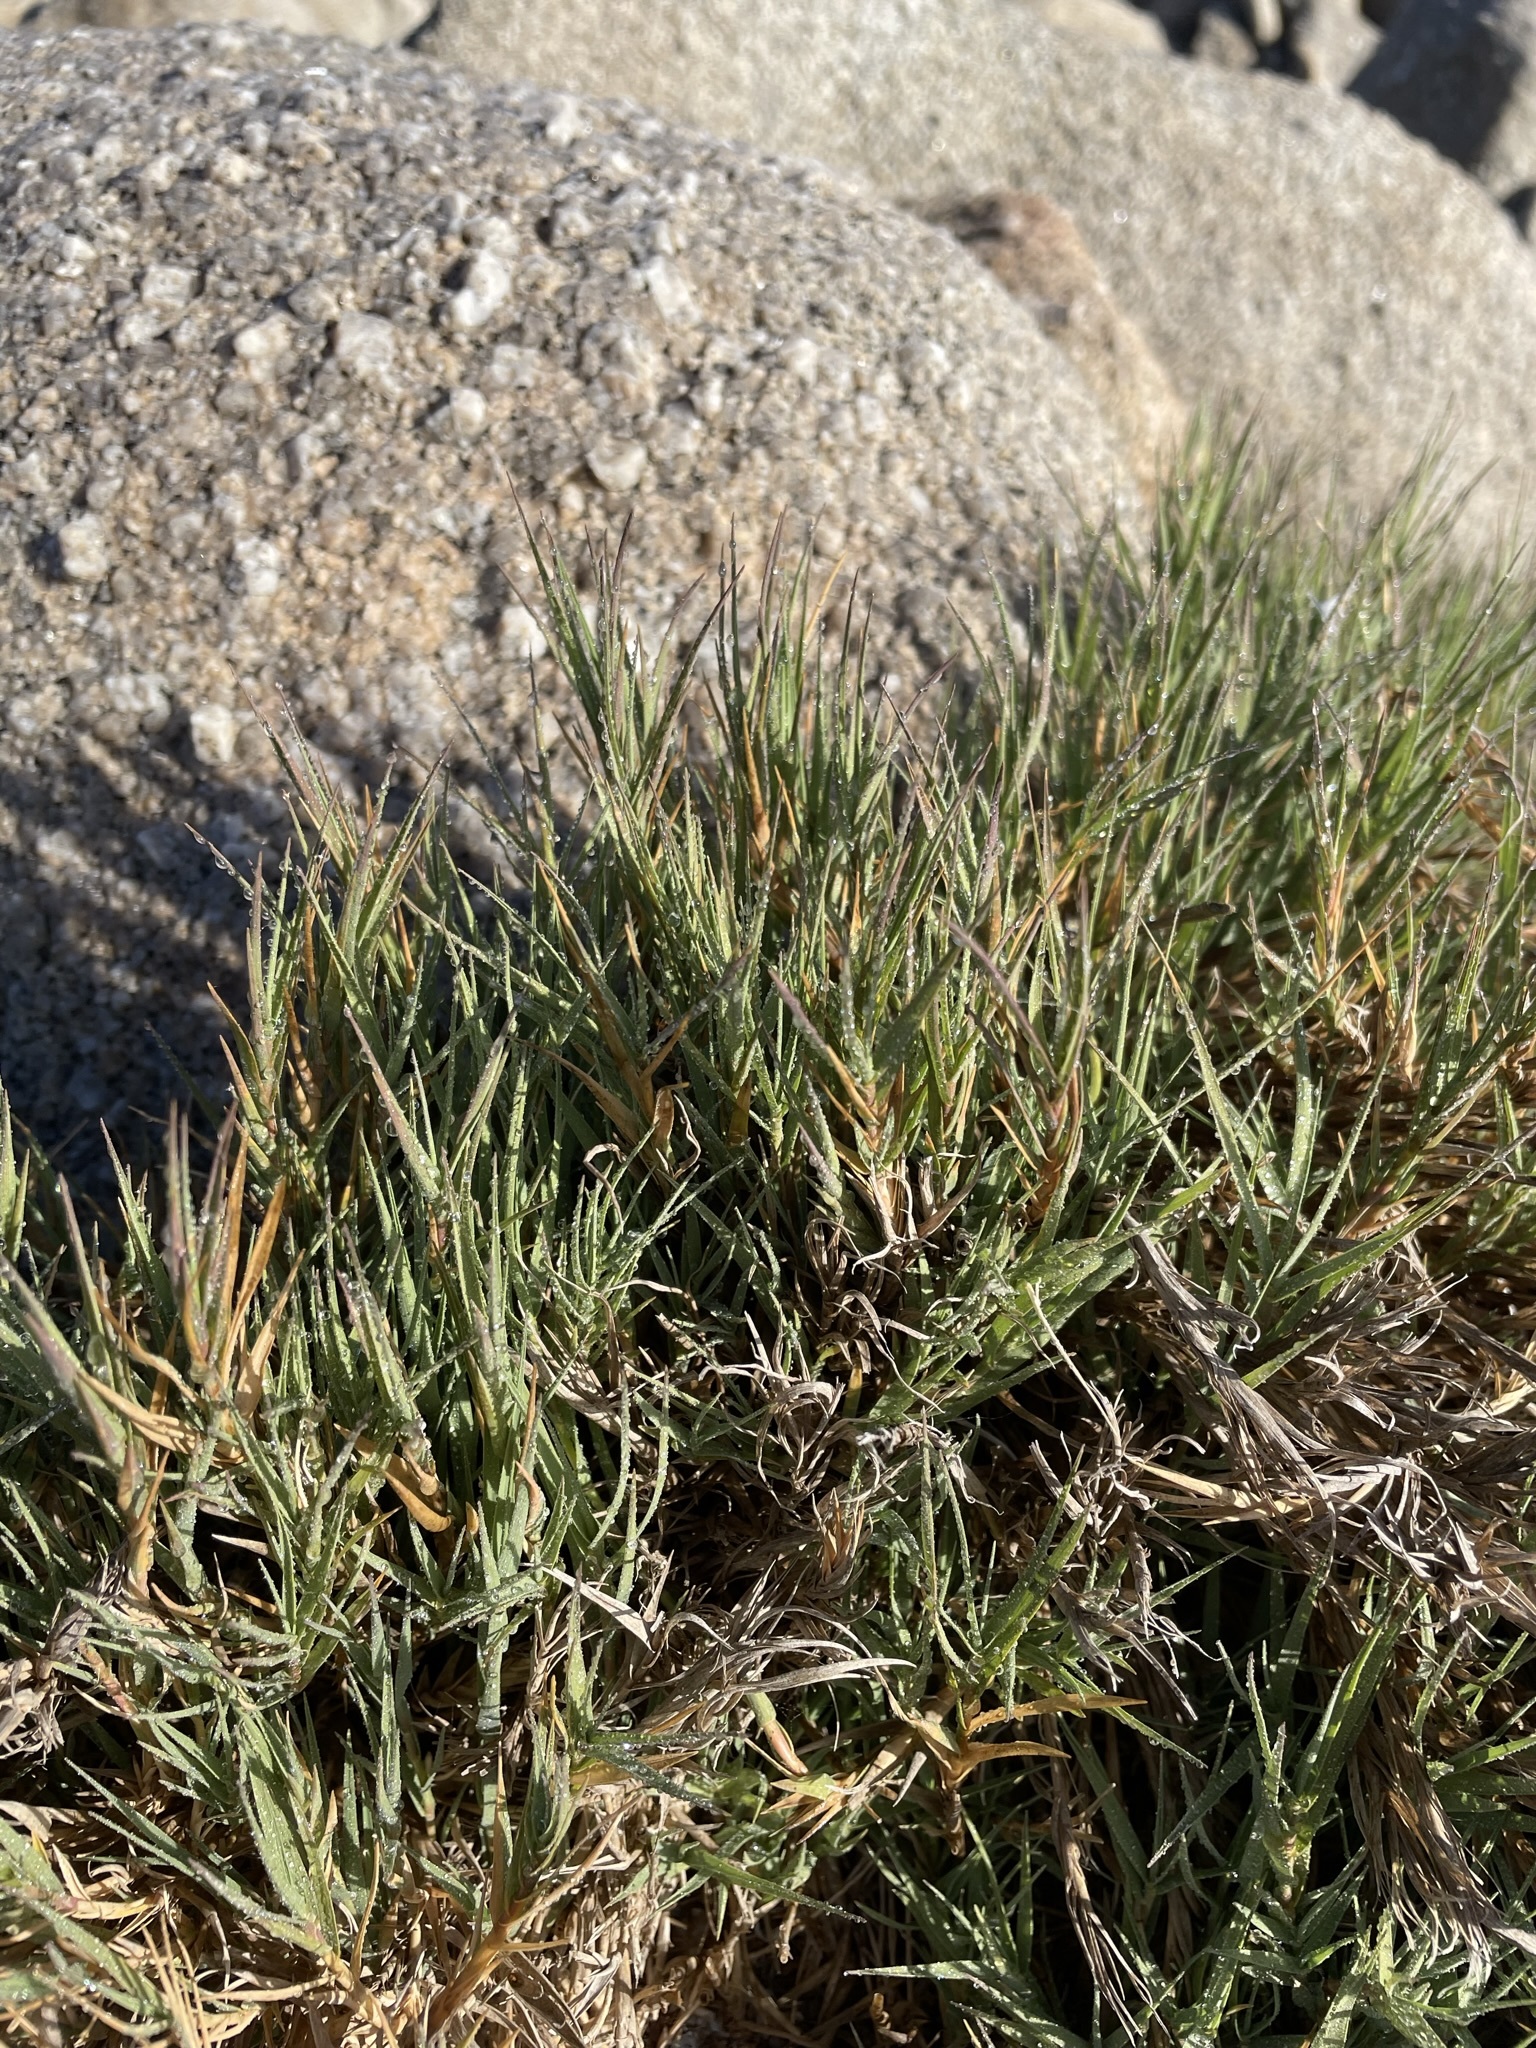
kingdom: Plantae
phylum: Tracheophyta
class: Liliopsida
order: Poales
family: Poaceae
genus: Distichlis
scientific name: Distichlis spicata
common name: Saltgrass
